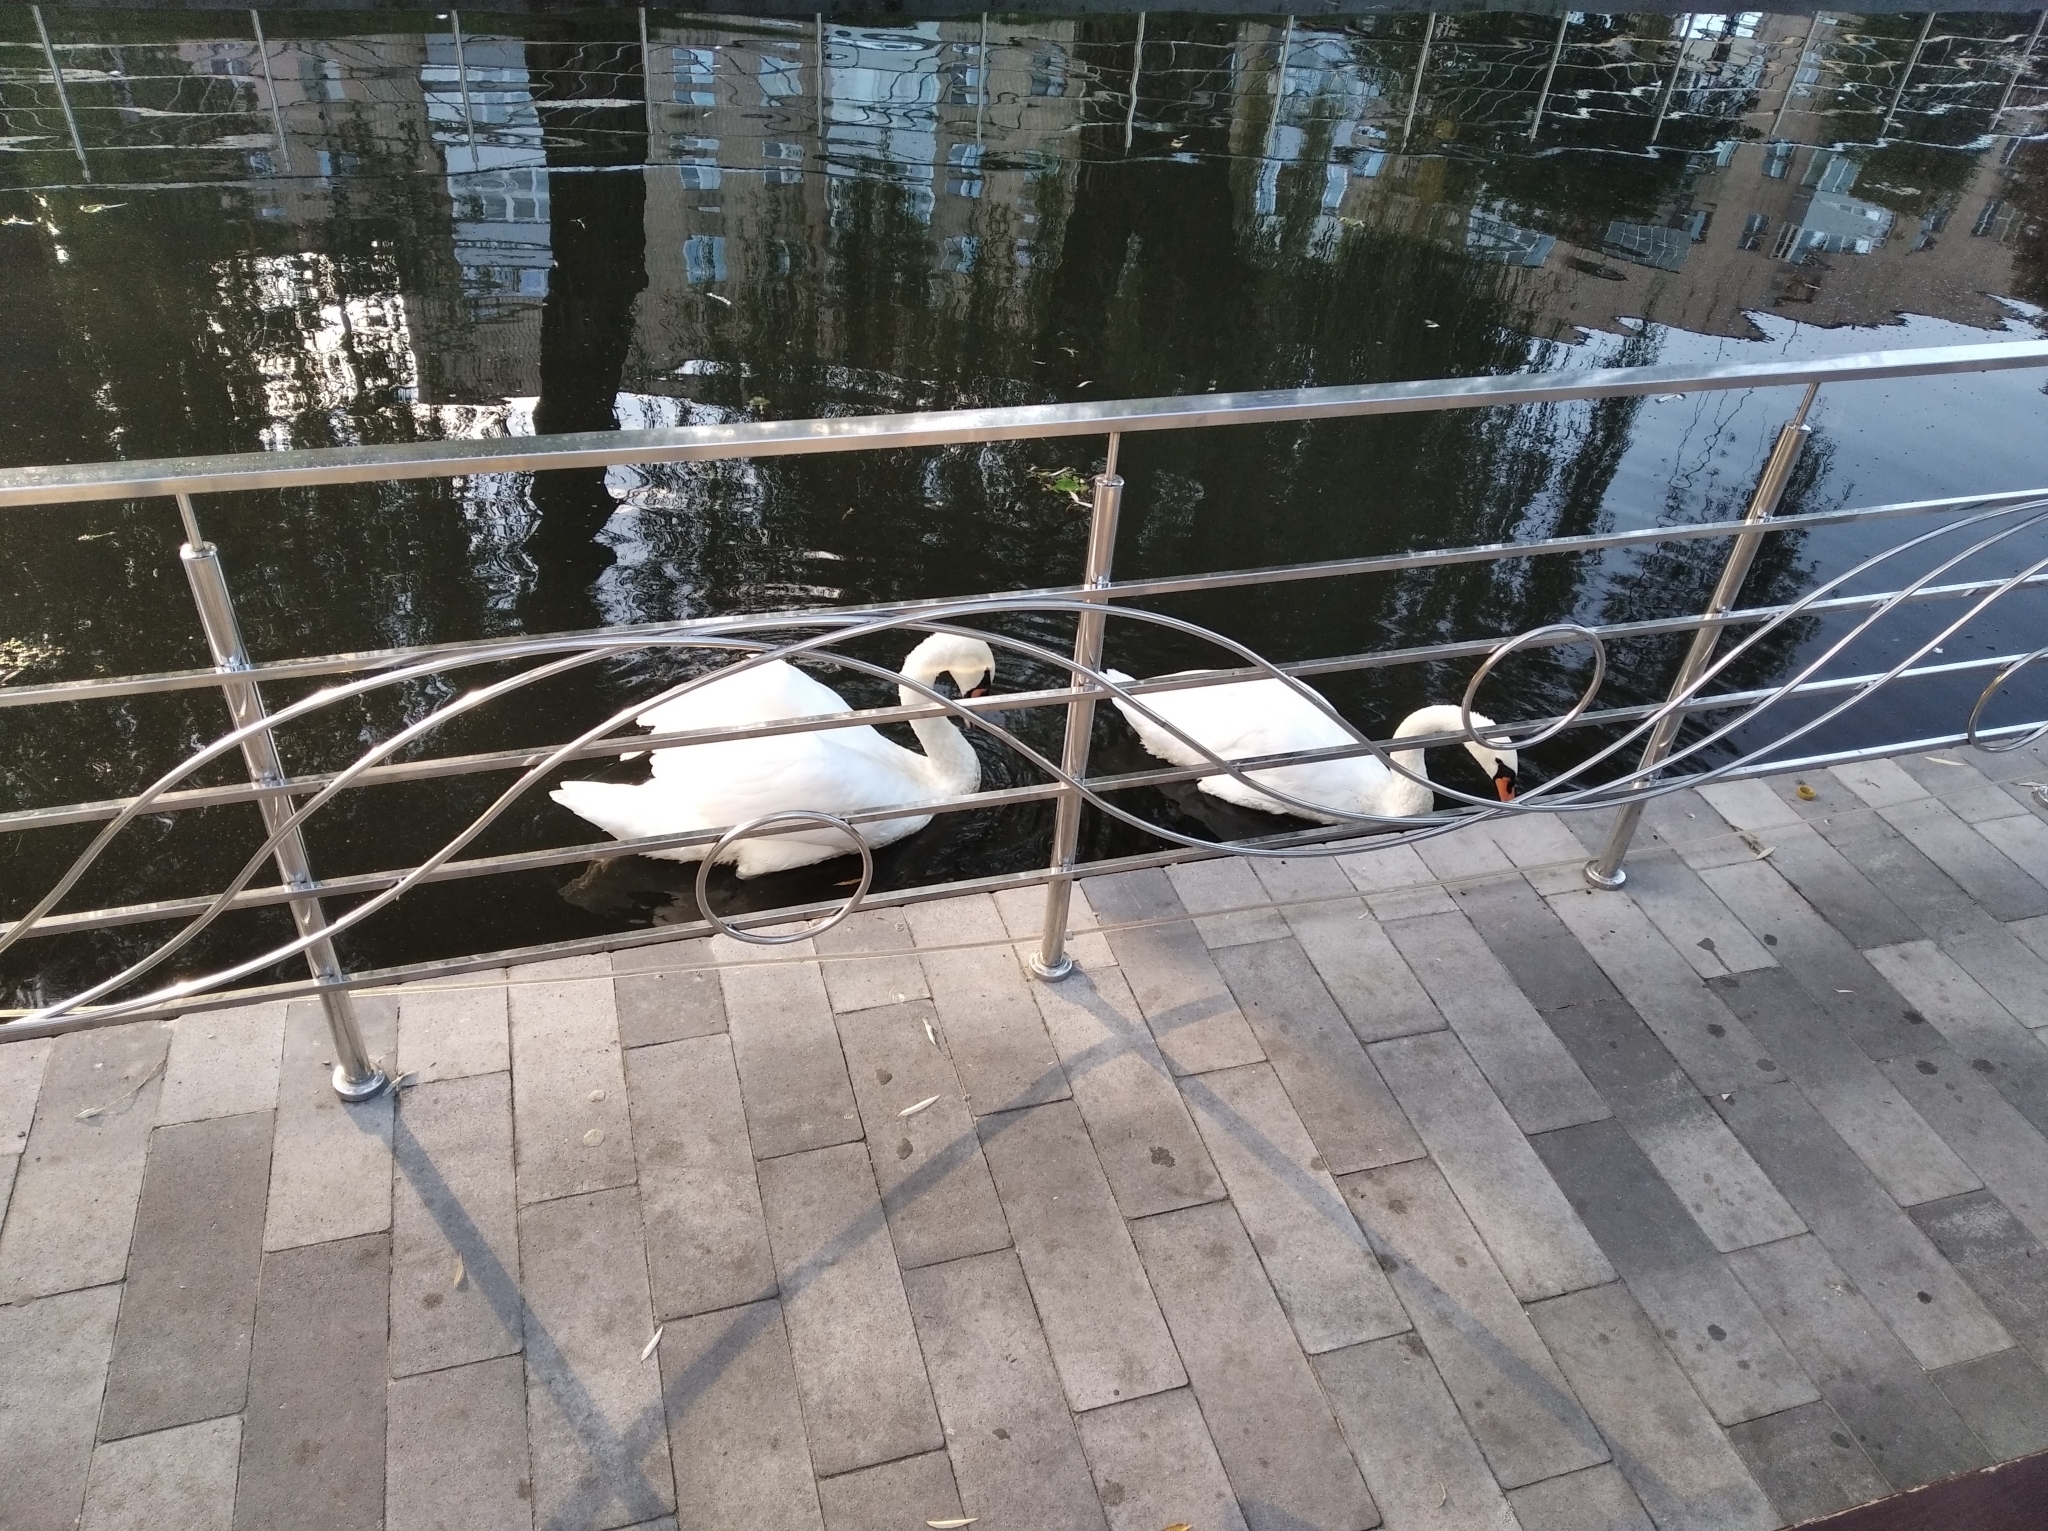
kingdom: Animalia
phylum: Chordata
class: Aves
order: Anseriformes
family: Anatidae
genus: Cygnus
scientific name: Cygnus olor
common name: Mute swan
